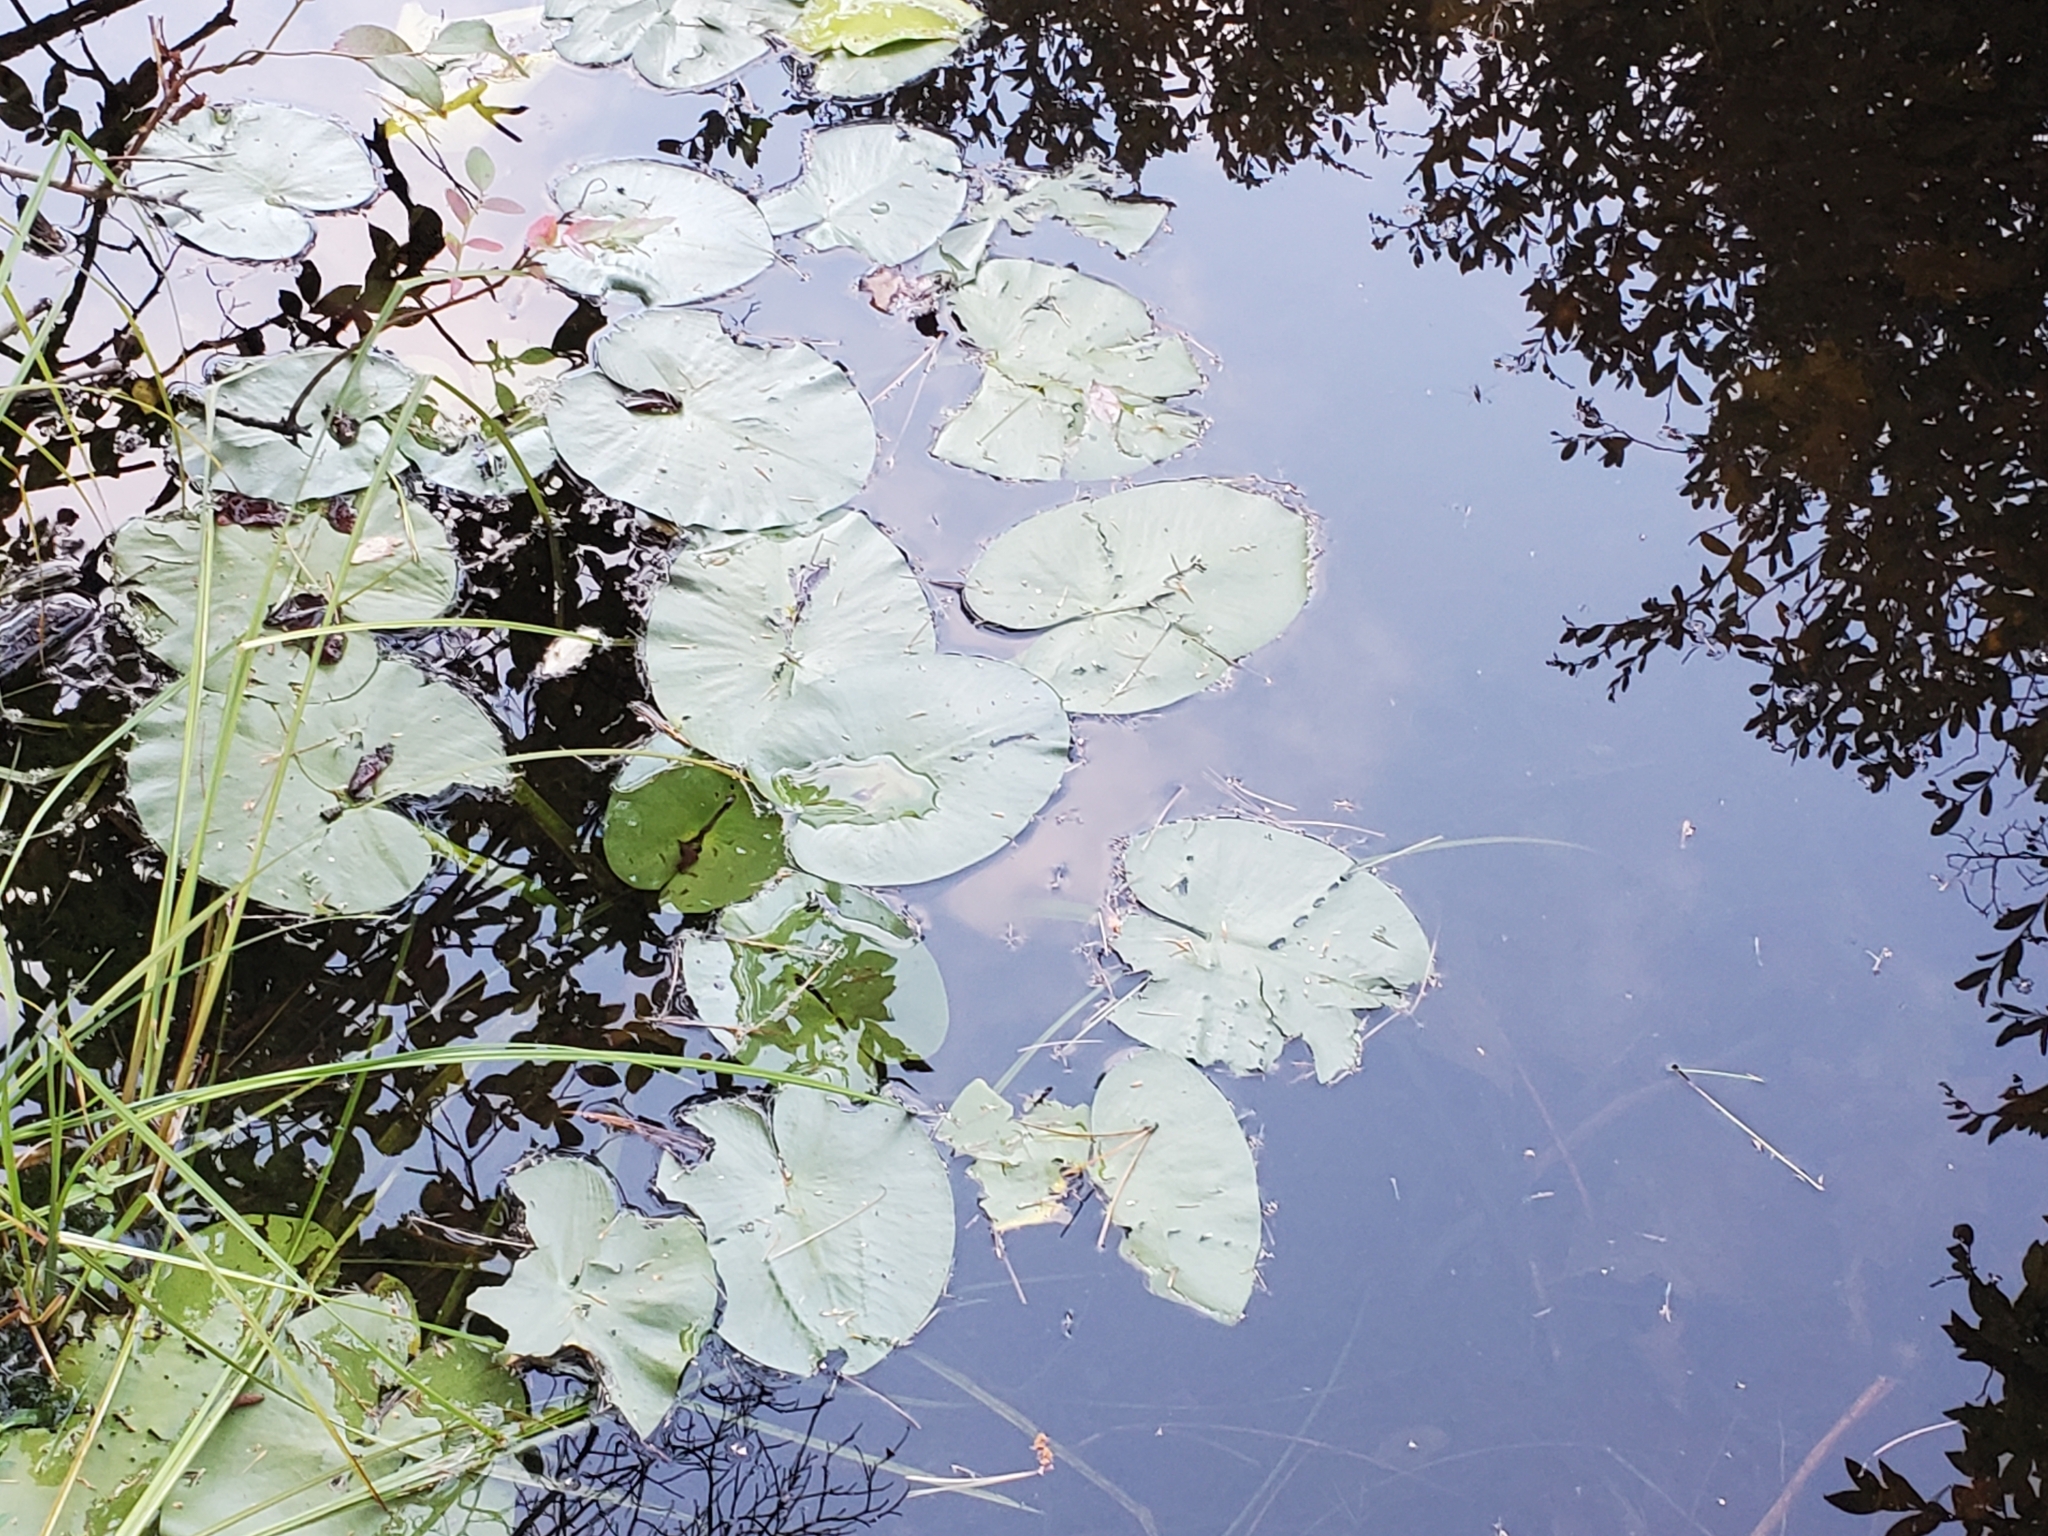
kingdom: Plantae
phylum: Tracheophyta
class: Magnoliopsida
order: Nymphaeales
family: Nymphaeaceae
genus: Nymphaea
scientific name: Nymphaea odorata
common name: Fragrant water-lily
